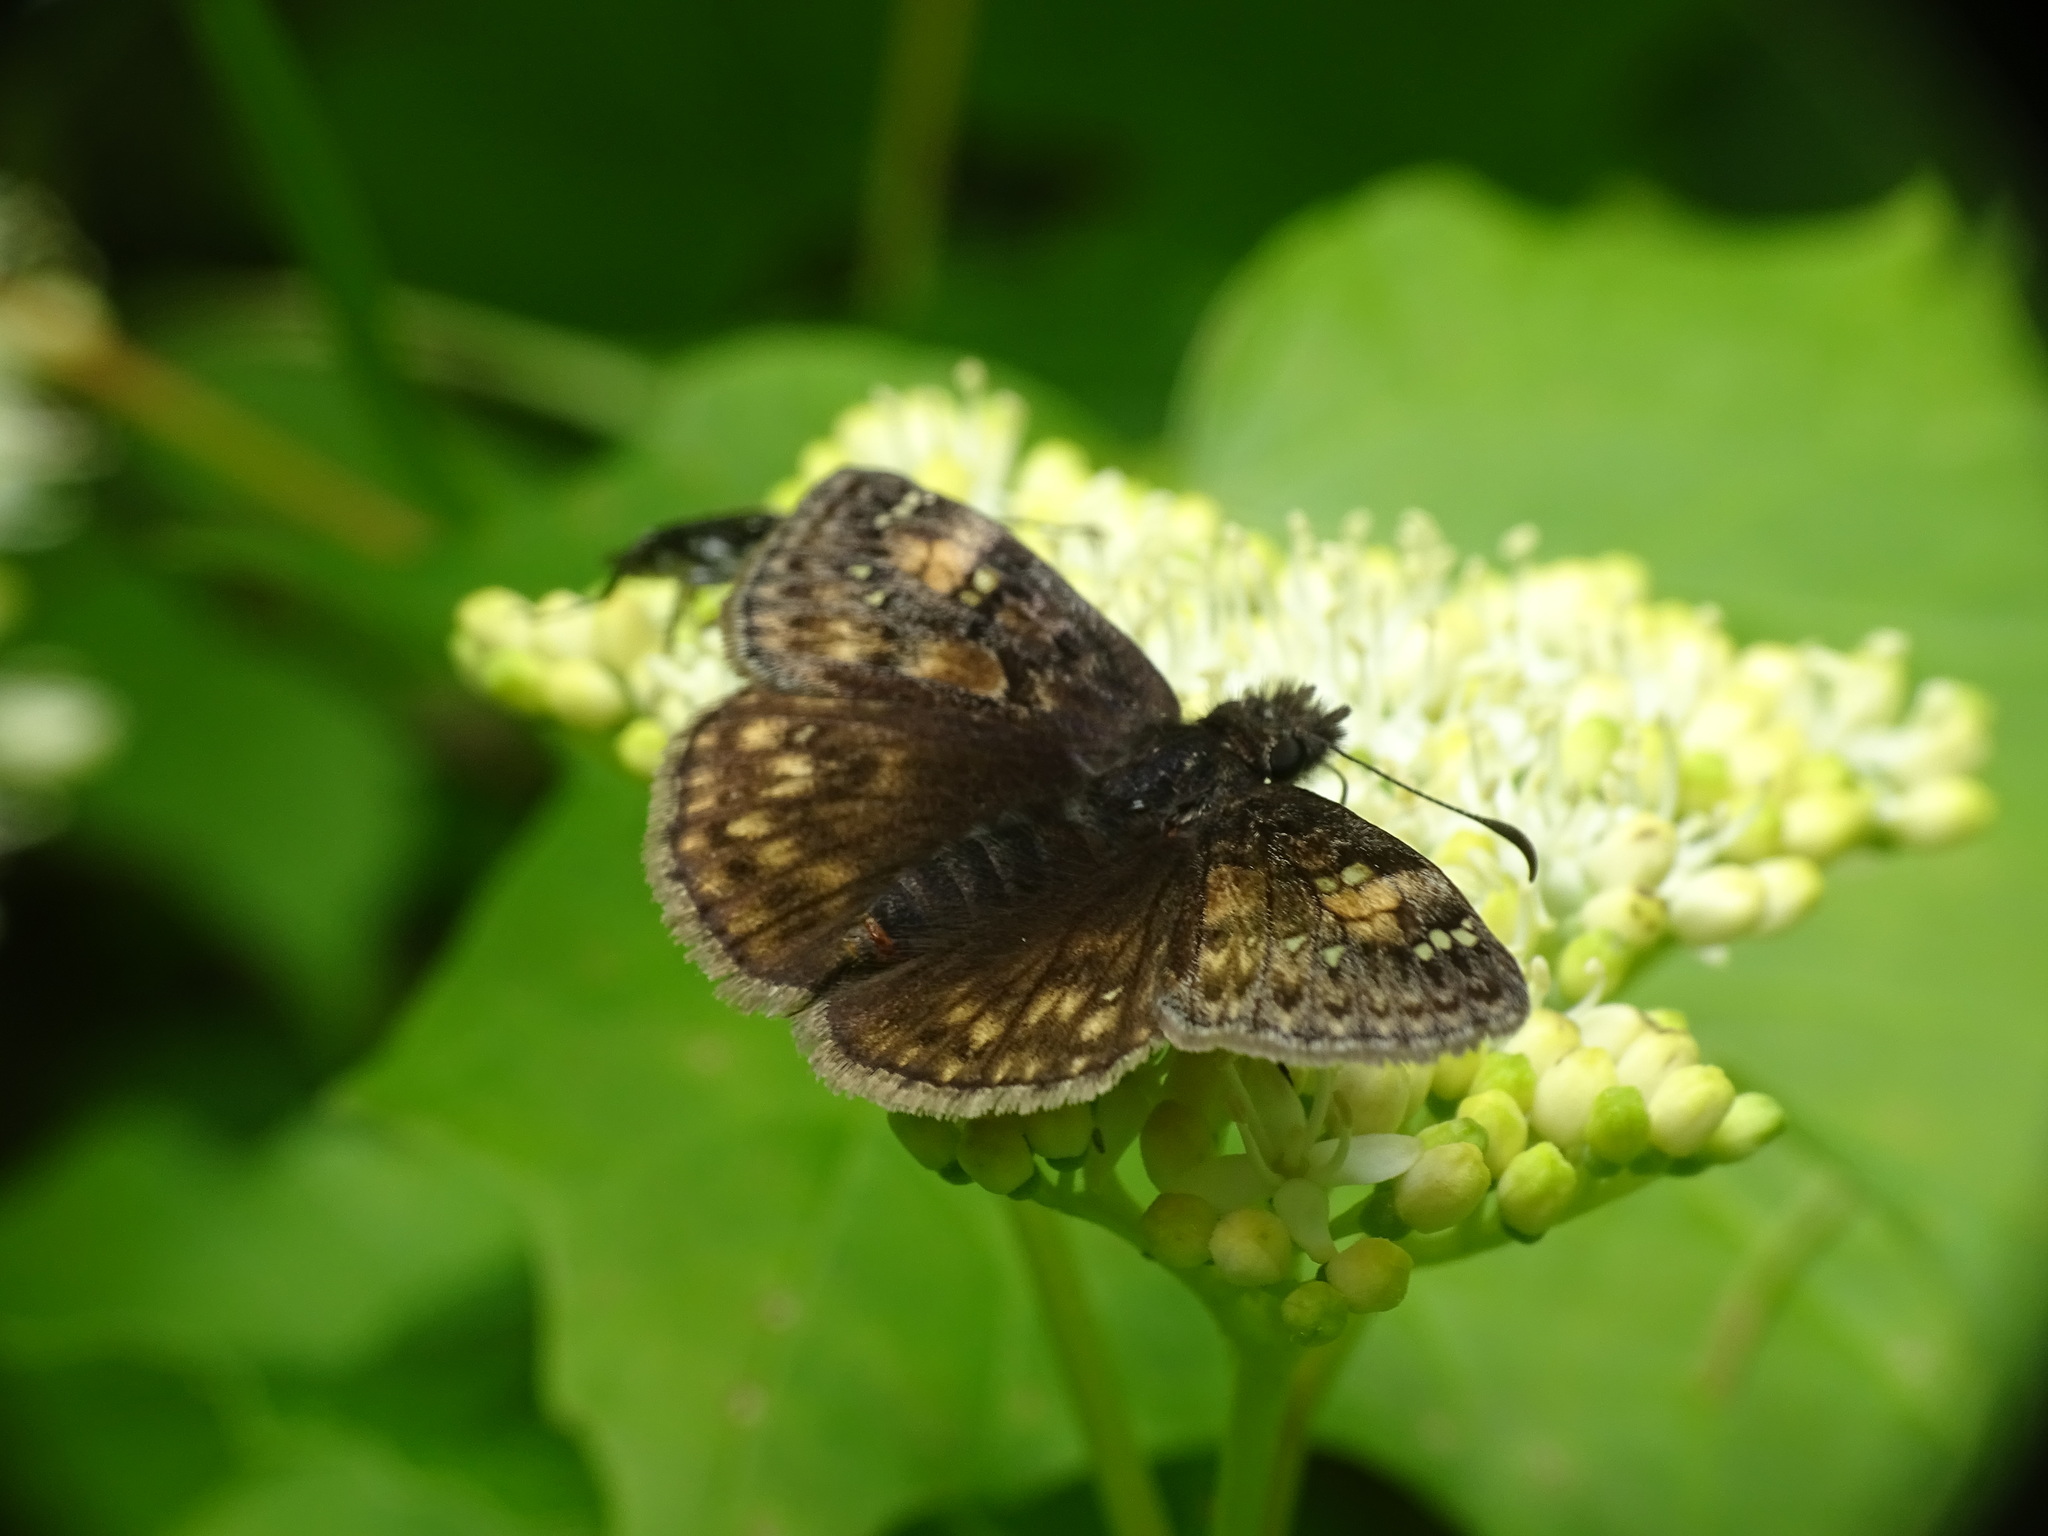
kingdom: Animalia
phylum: Arthropoda
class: Insecta
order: Lepidoptera
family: Hesperiidae
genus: Erynnis
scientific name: Erynnis juvenalis
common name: Juvenal's duskywing
